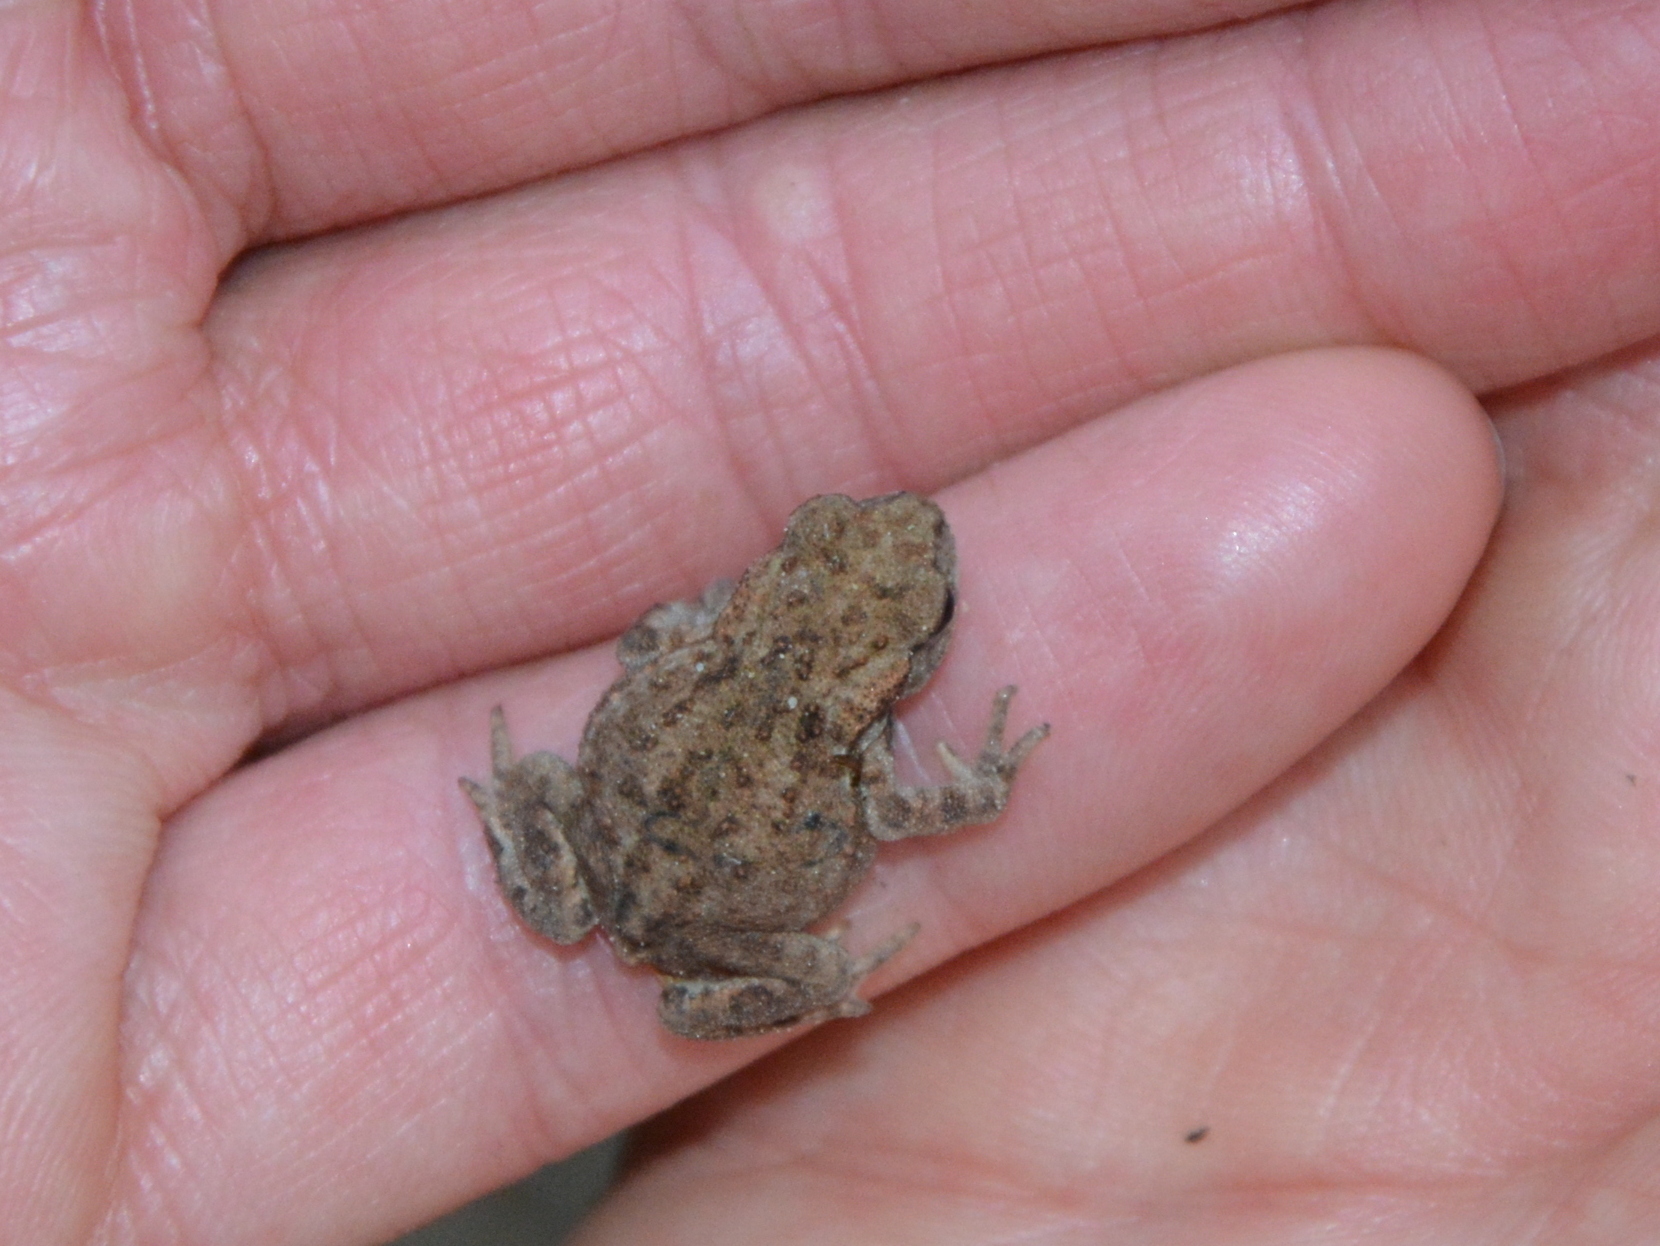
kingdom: Animalia
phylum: Chordata
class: Amphibia
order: Anura
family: Bufonidae
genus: Bufo
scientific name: Bufo bufo
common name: Common toad
